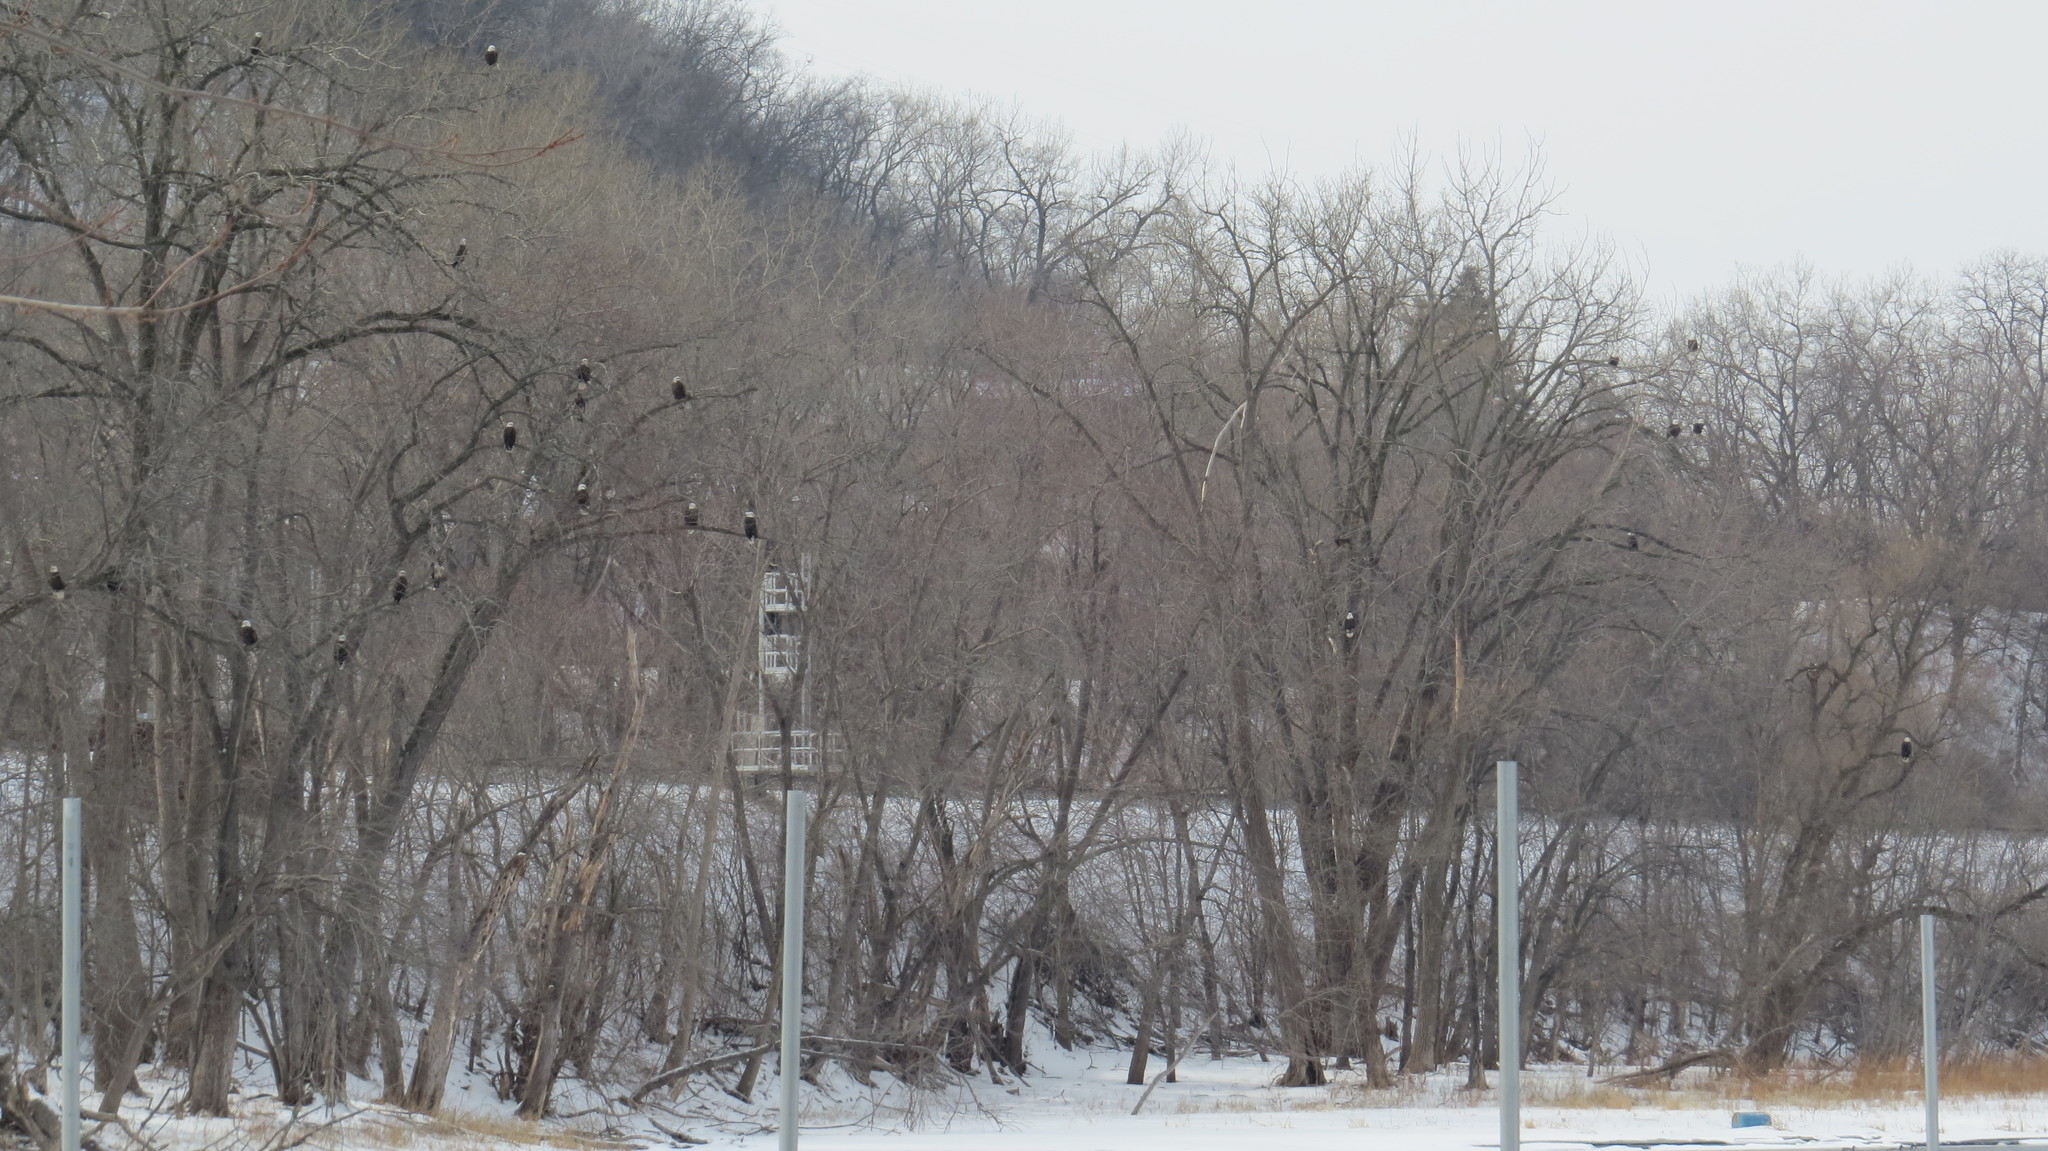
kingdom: Animalia
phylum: Chordata
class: Aves
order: Accipitriformes
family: Accipitridae
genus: Haliaeetus
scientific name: Haliaeetus leucocephalus
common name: Bald eagle
